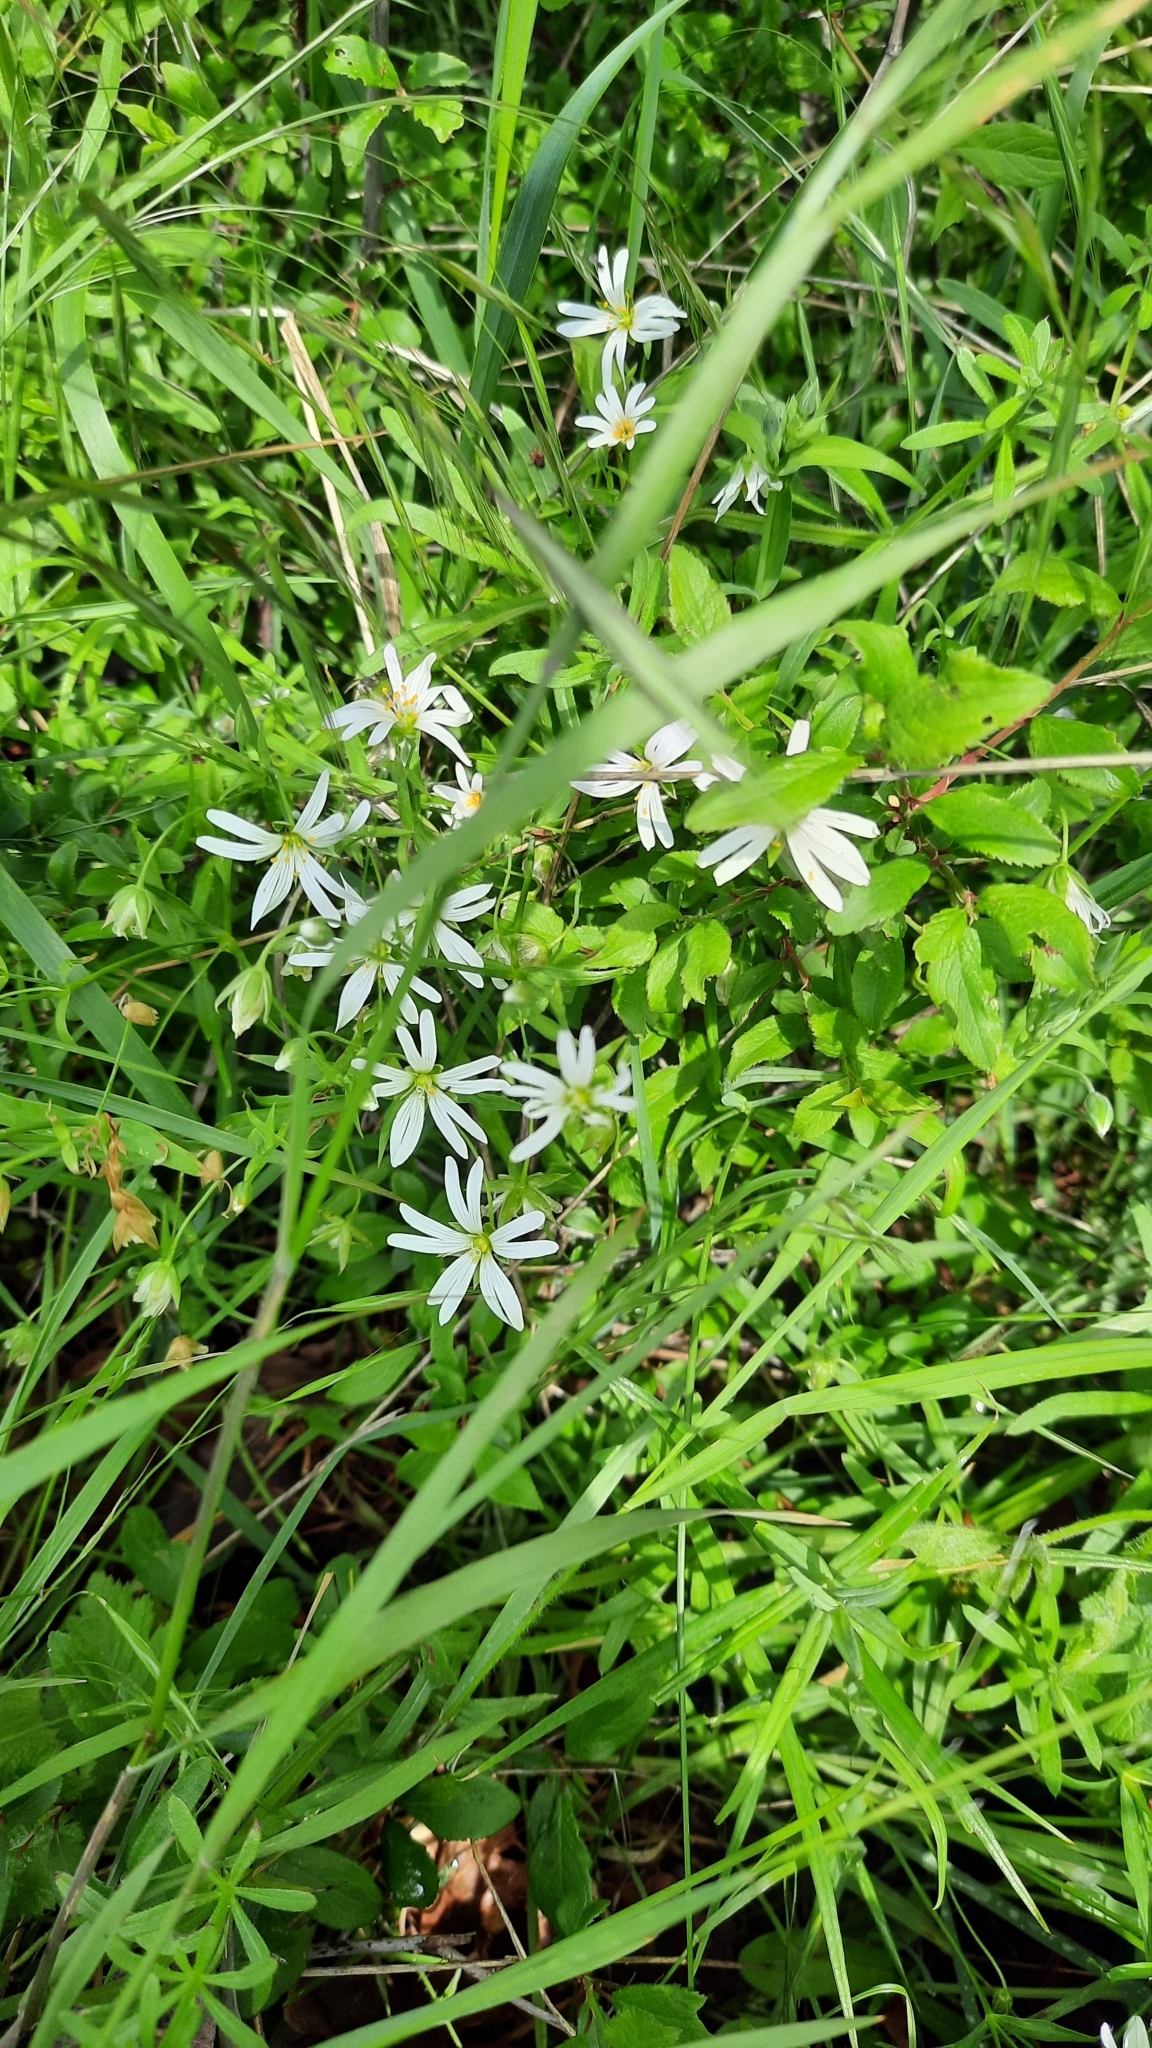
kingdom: Plantae
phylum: Tracheophyta
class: Magnoliopsida
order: Caryophyllales
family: Caryophyllaceae
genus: Rabelera
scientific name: Rabelera holostea
